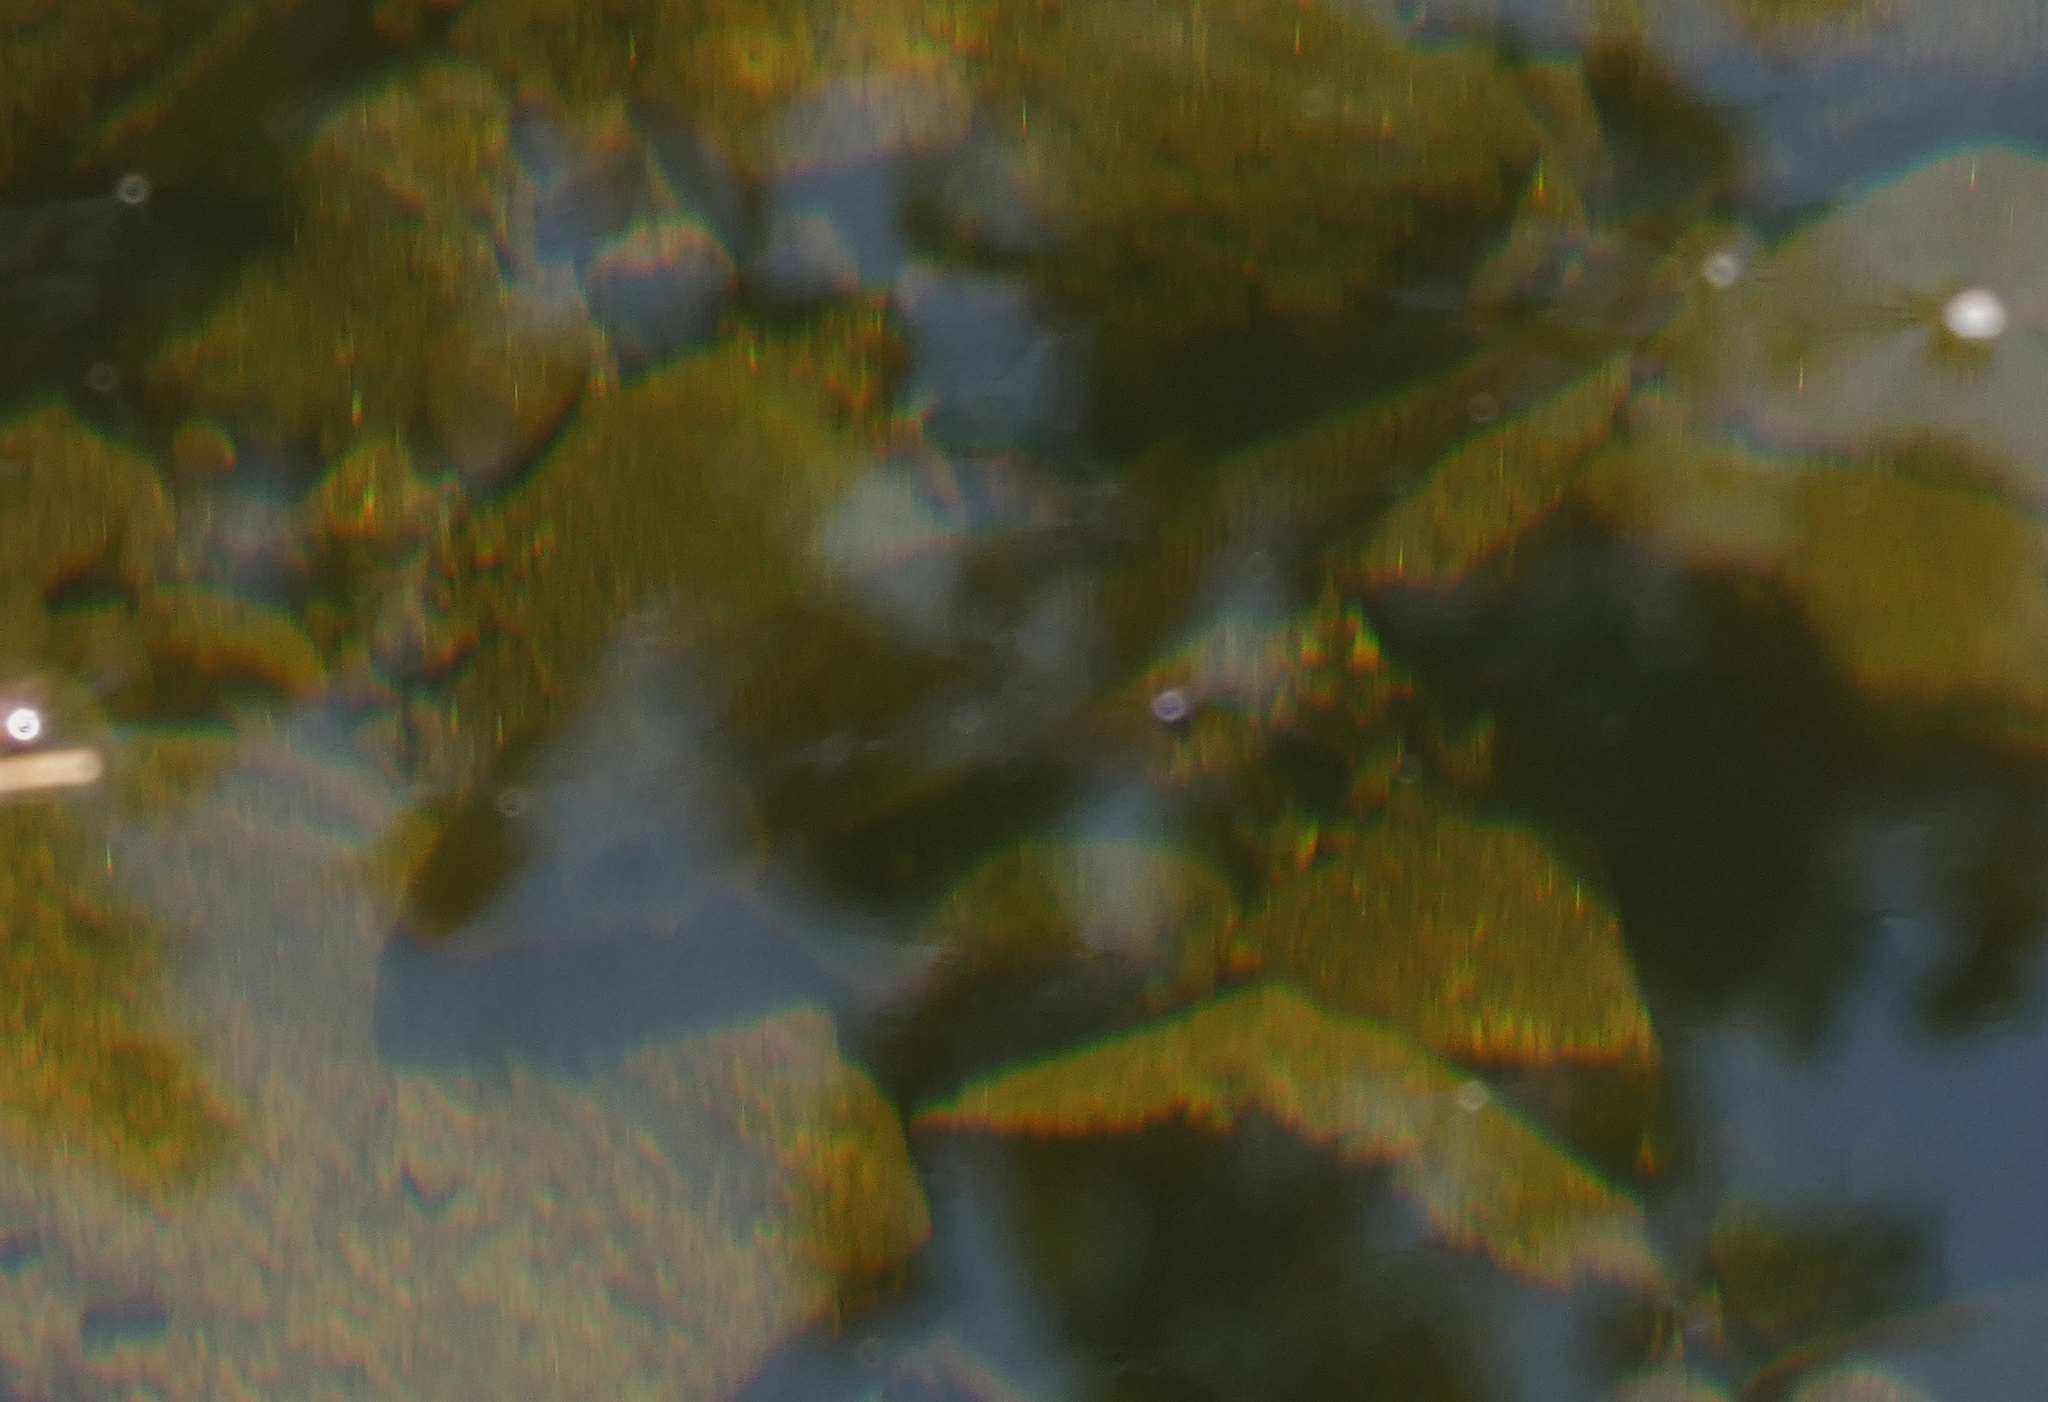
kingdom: Animalia
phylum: Chordata
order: Cypriniformes
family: Catostomidae
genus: Catostomus
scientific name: Catostomus commersonii
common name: White sucker
